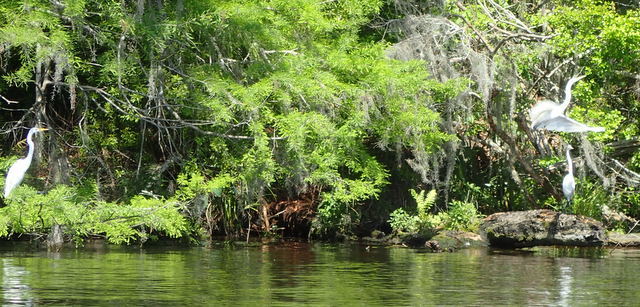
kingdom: Animalia
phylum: Chordata
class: Aves
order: Pelecaniformes
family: Ardeidae
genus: Ardea
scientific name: Ardea alba
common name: Great egret
